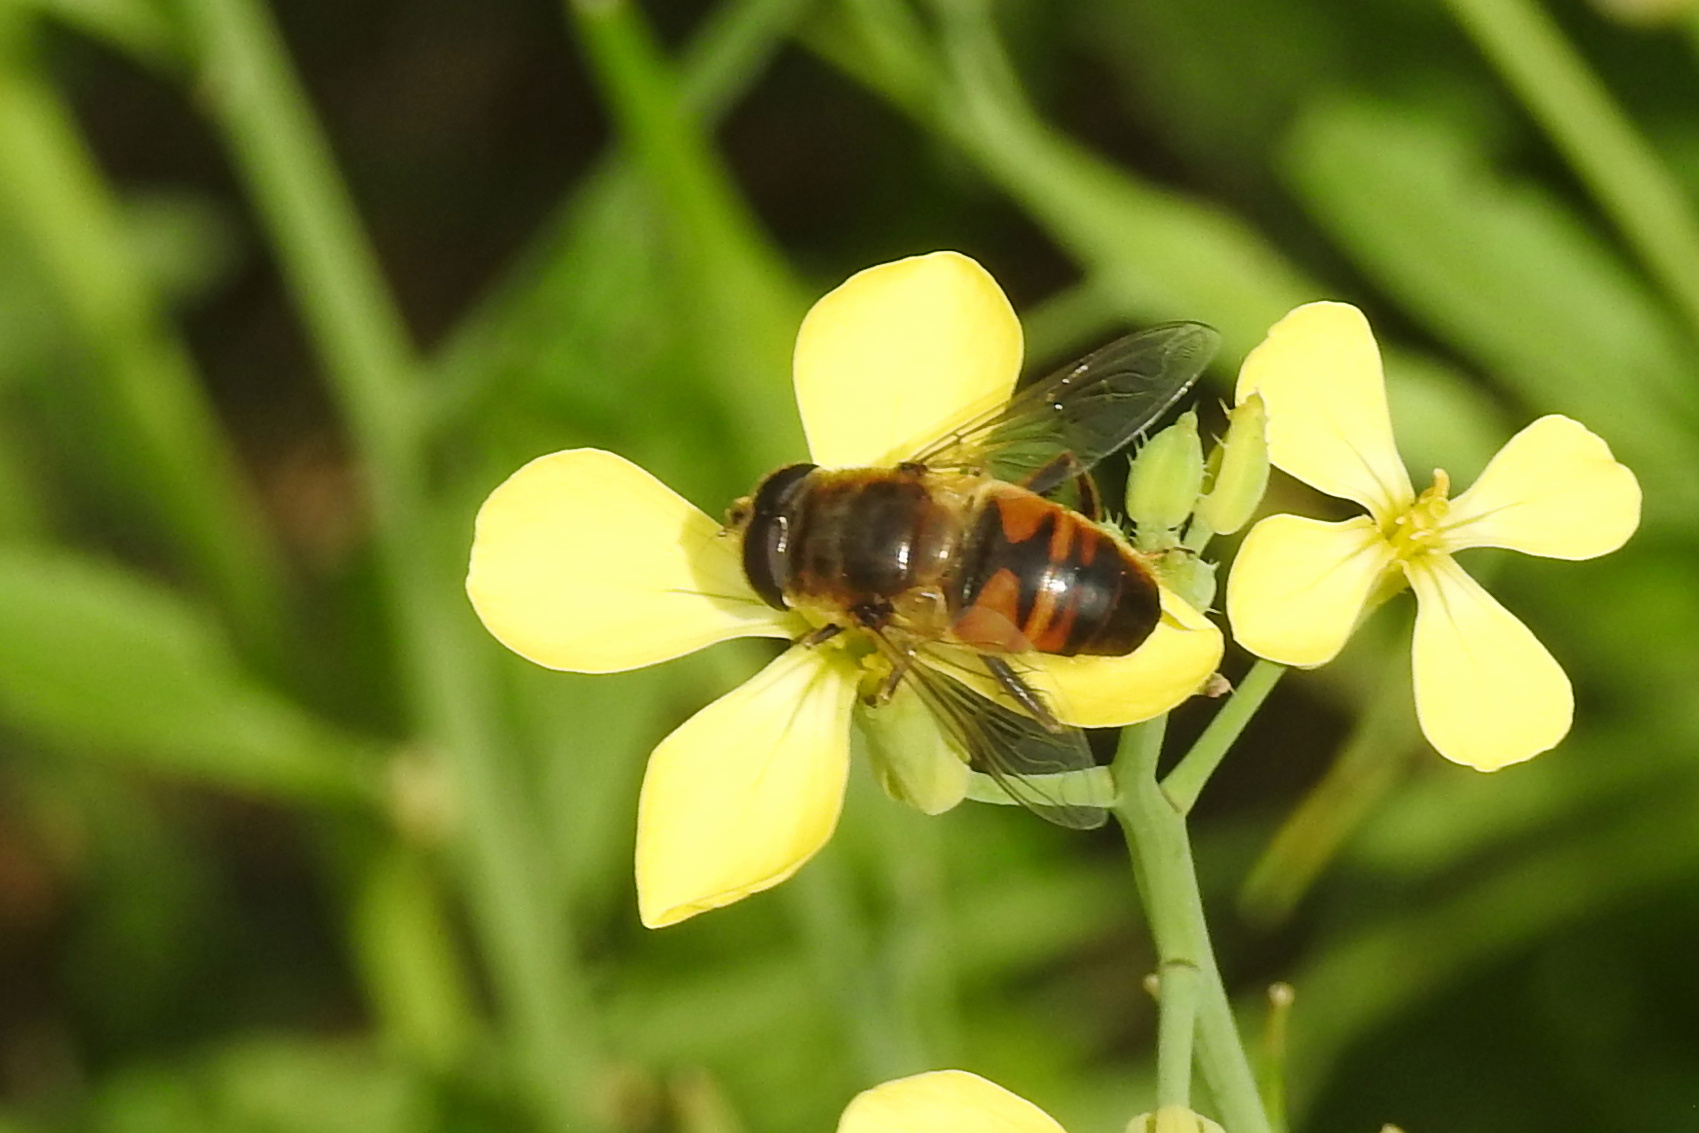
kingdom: Animalia
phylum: Arthropoda
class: Insecta
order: Diptera
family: Syrphidae
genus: Eristalis
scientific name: Eristalis tenax
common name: Drone fly
